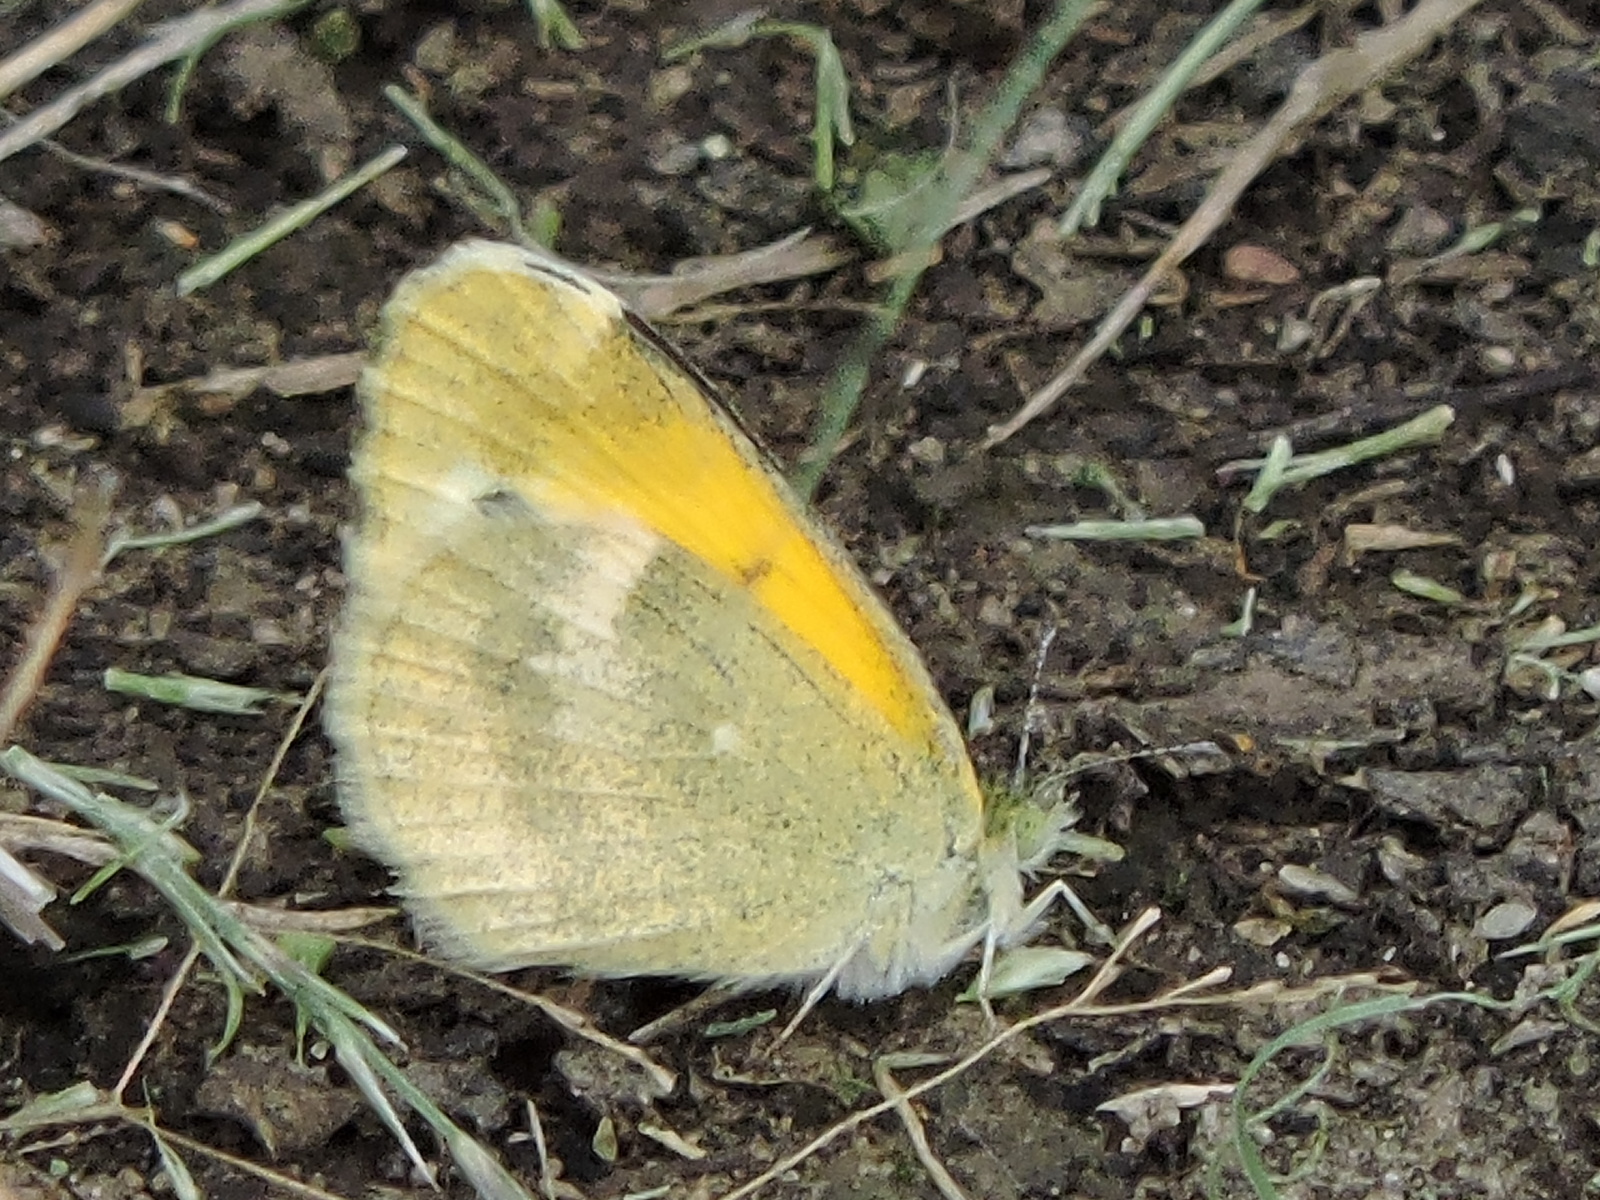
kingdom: Animalia
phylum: Arthropoda
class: Insecta
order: Lepidoptera
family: Pieridae
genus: Nathalis
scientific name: Nathalis iole
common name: Dainty sulphur
